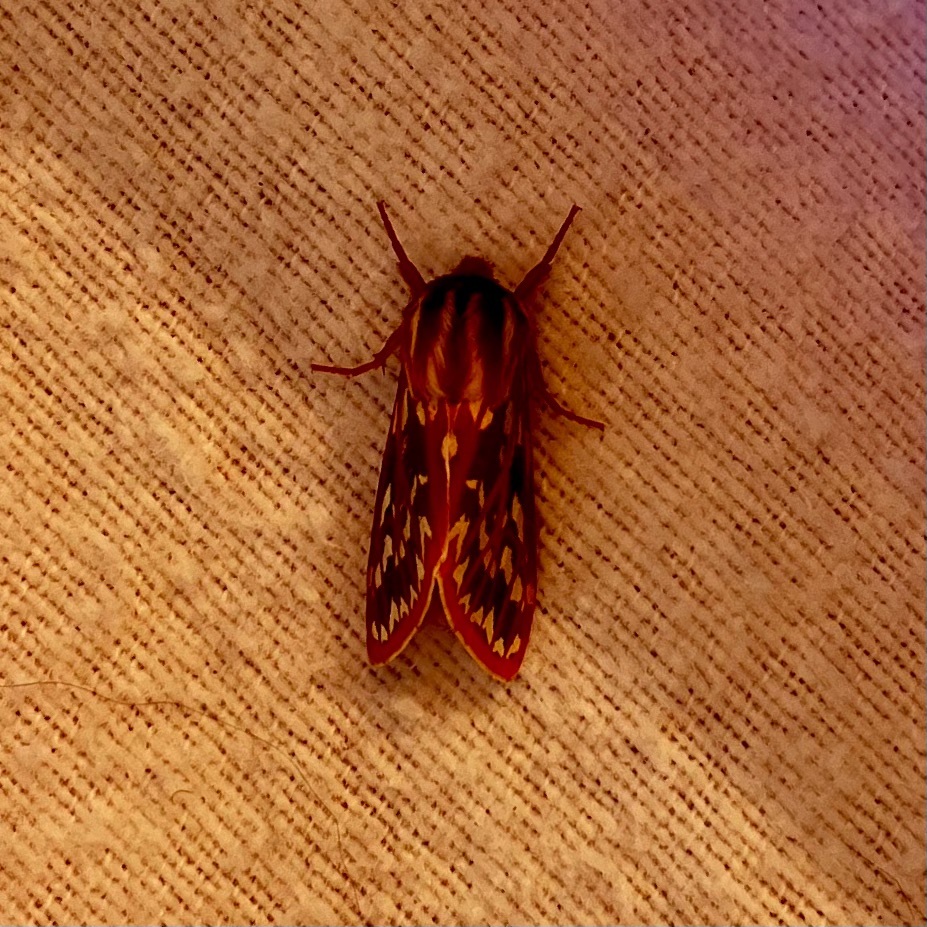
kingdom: Animalia
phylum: Arthropoda
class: Insecta
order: Lepidoptera
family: Erebidae
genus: Lophocampa
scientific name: Lophocampa roseata
